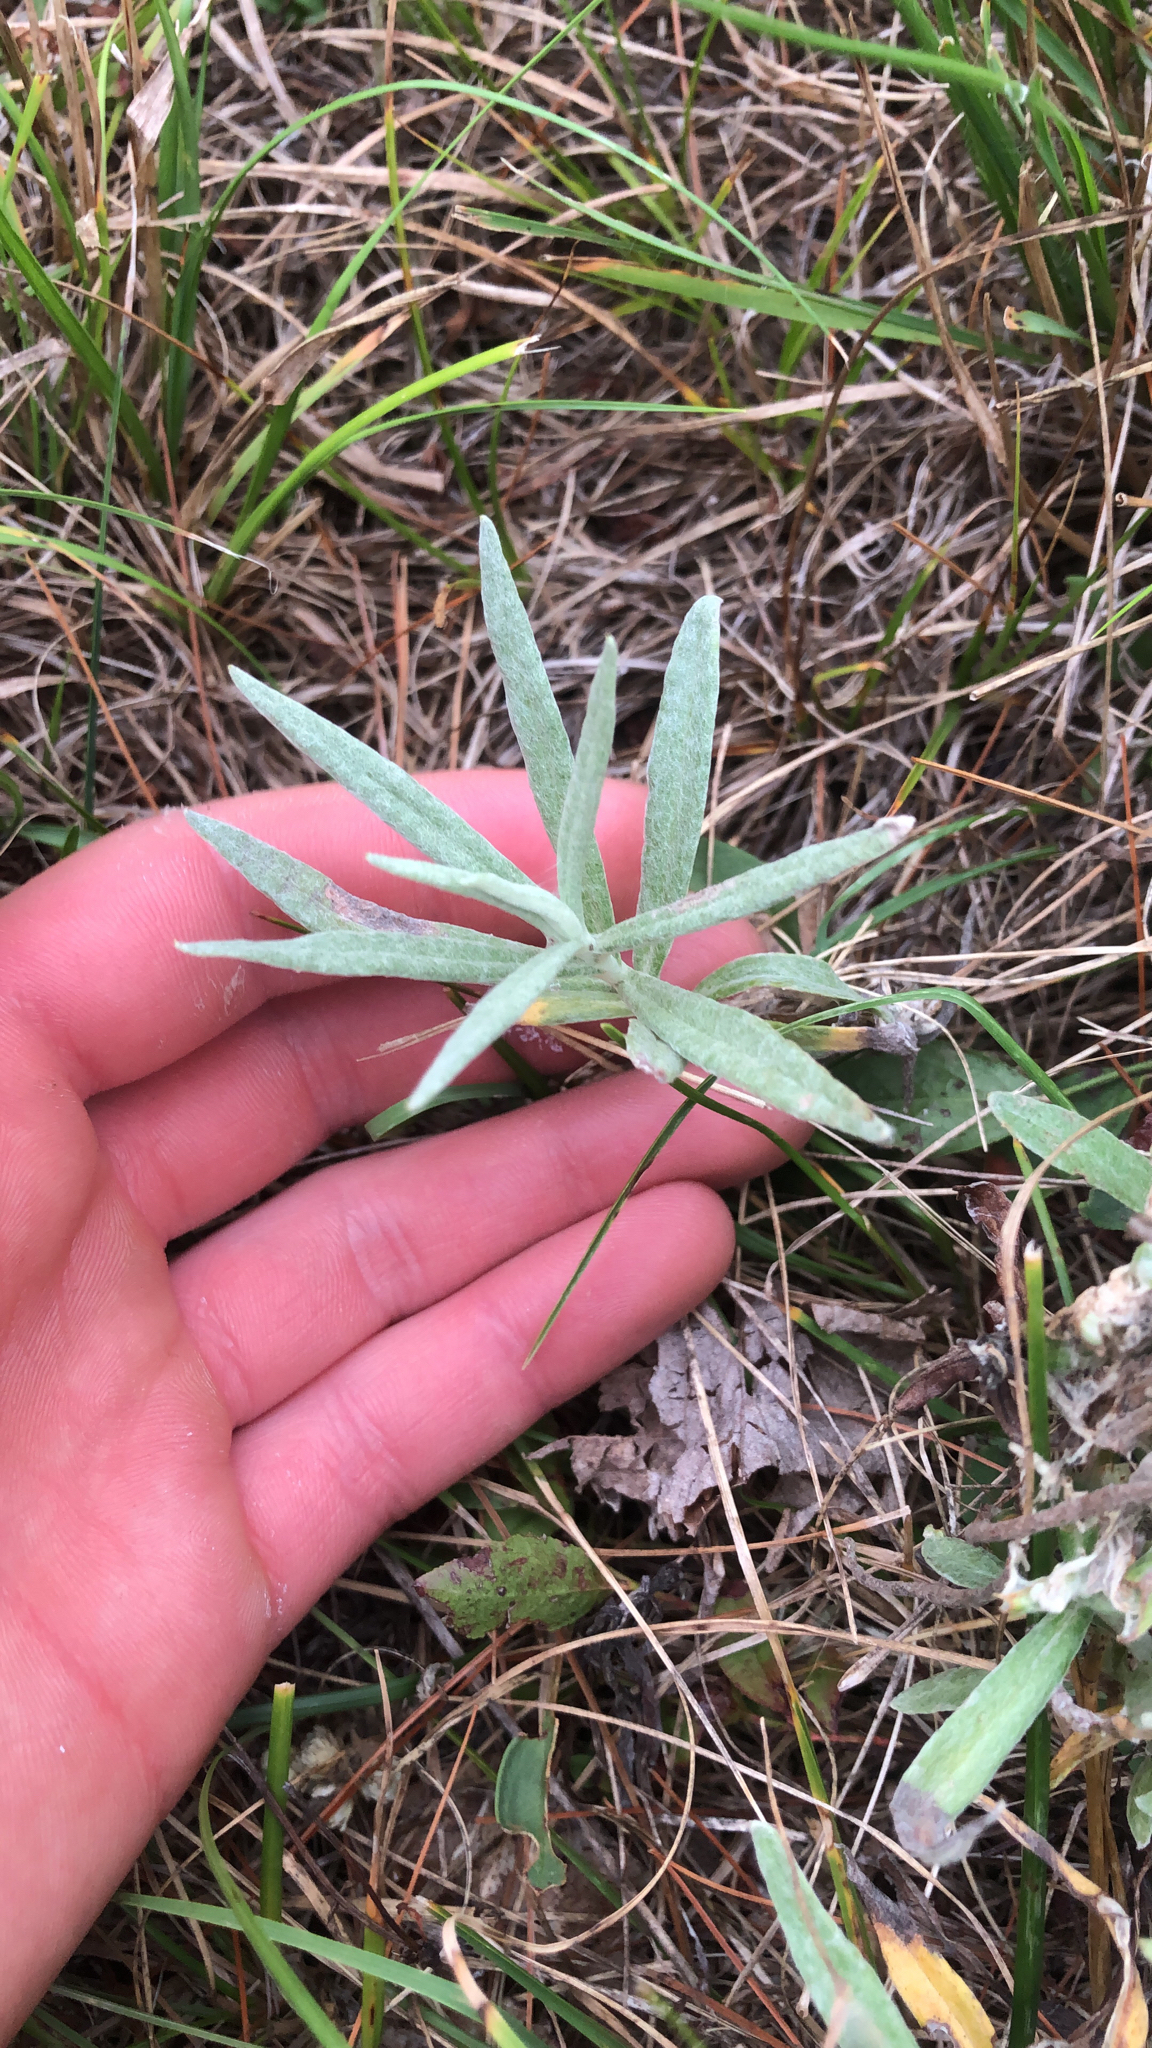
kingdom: Plantae
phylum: Tracheophyta
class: Magnoliopsida
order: Asterales
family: Asteraceae
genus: Anaphalis
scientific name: Anaphalis margaritacea
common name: Pearly everlasting
